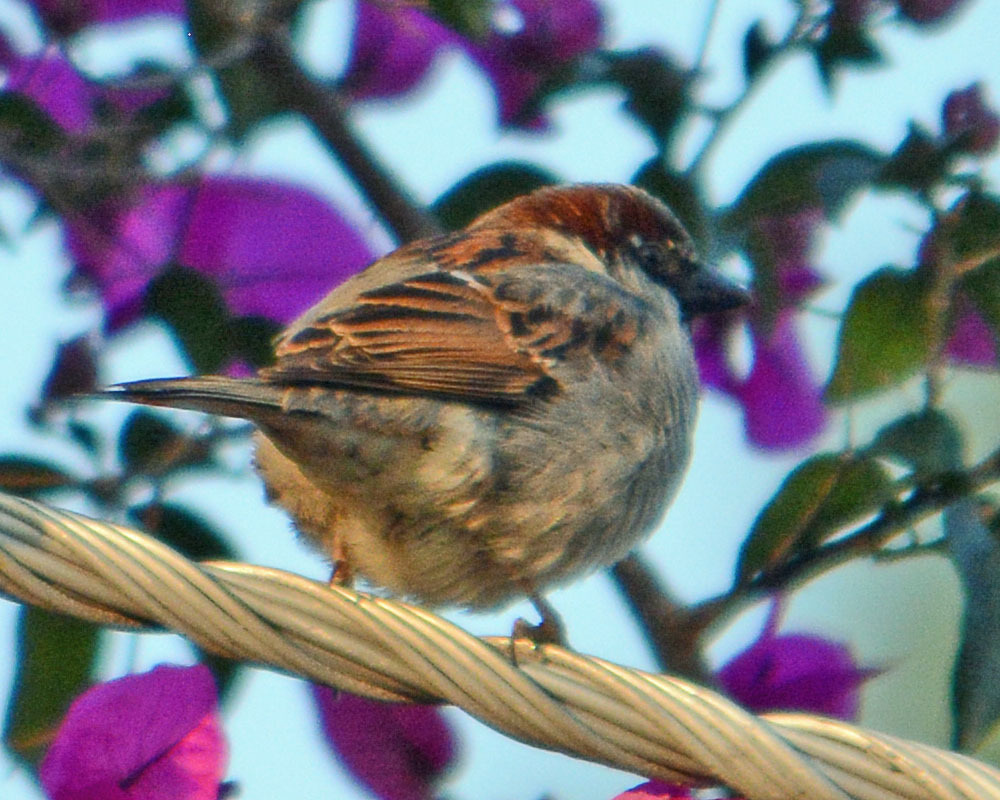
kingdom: Animalia
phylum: Chordata
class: Aves
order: Passeriformes
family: Passeridae
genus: Passer
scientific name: Passer domesticus
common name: House sparrow
